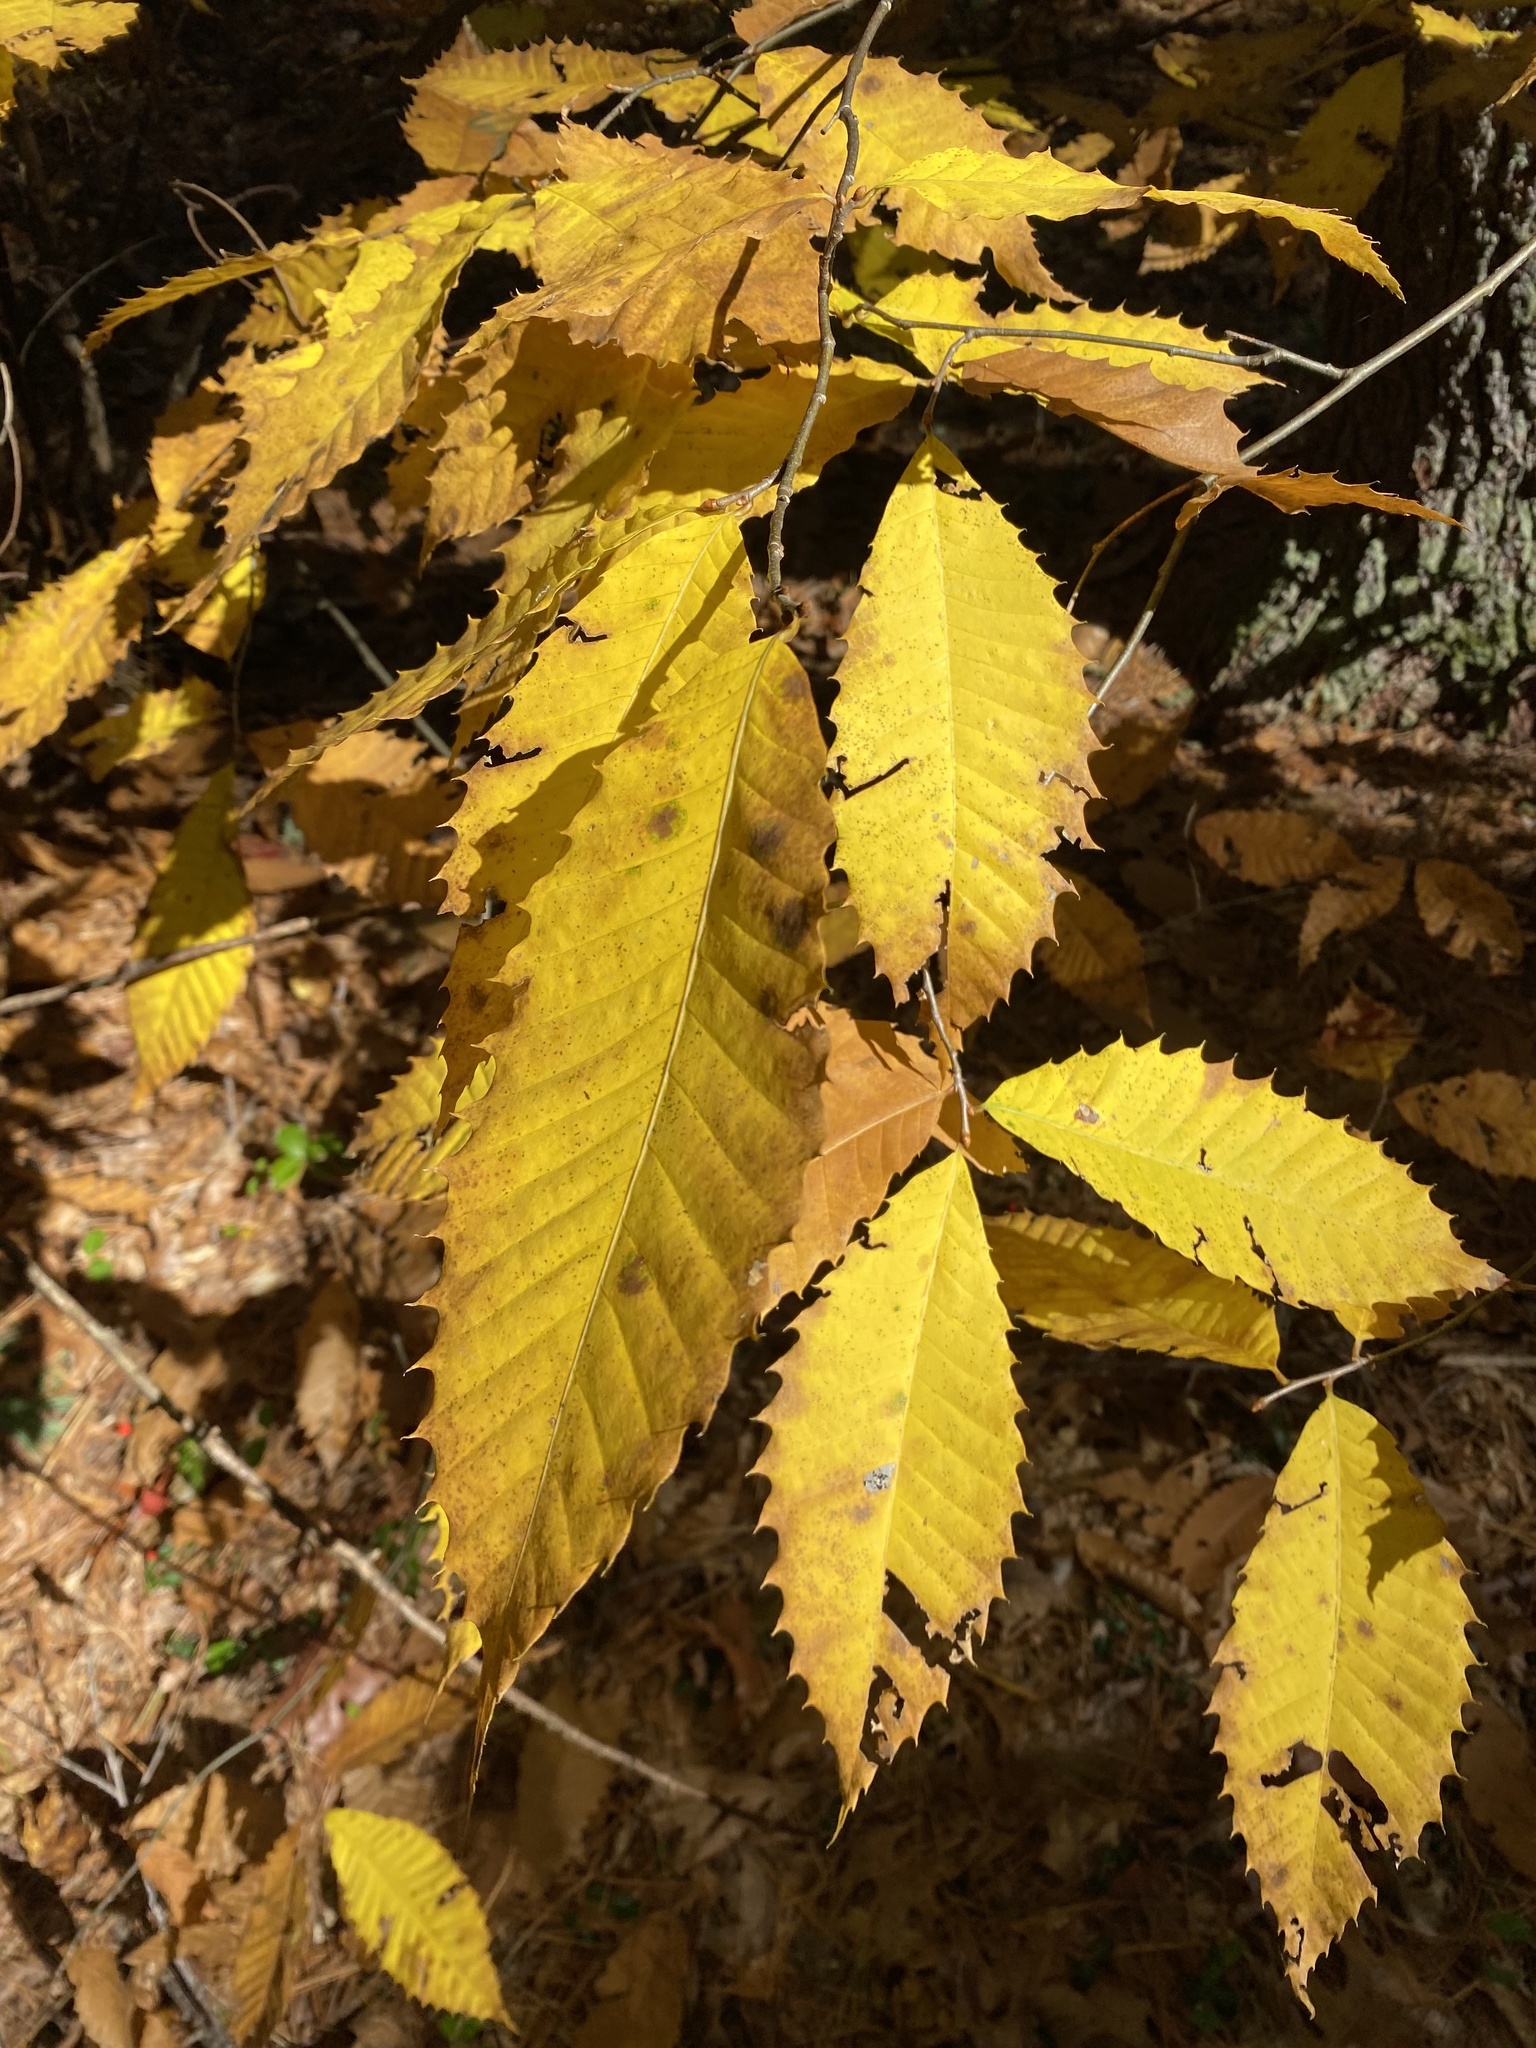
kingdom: Plantae
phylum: Tracheophyta
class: Magnoliopsida
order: Fagales
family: Fagaceae
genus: Castanea
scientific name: Castanea dentata
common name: American chestnut
